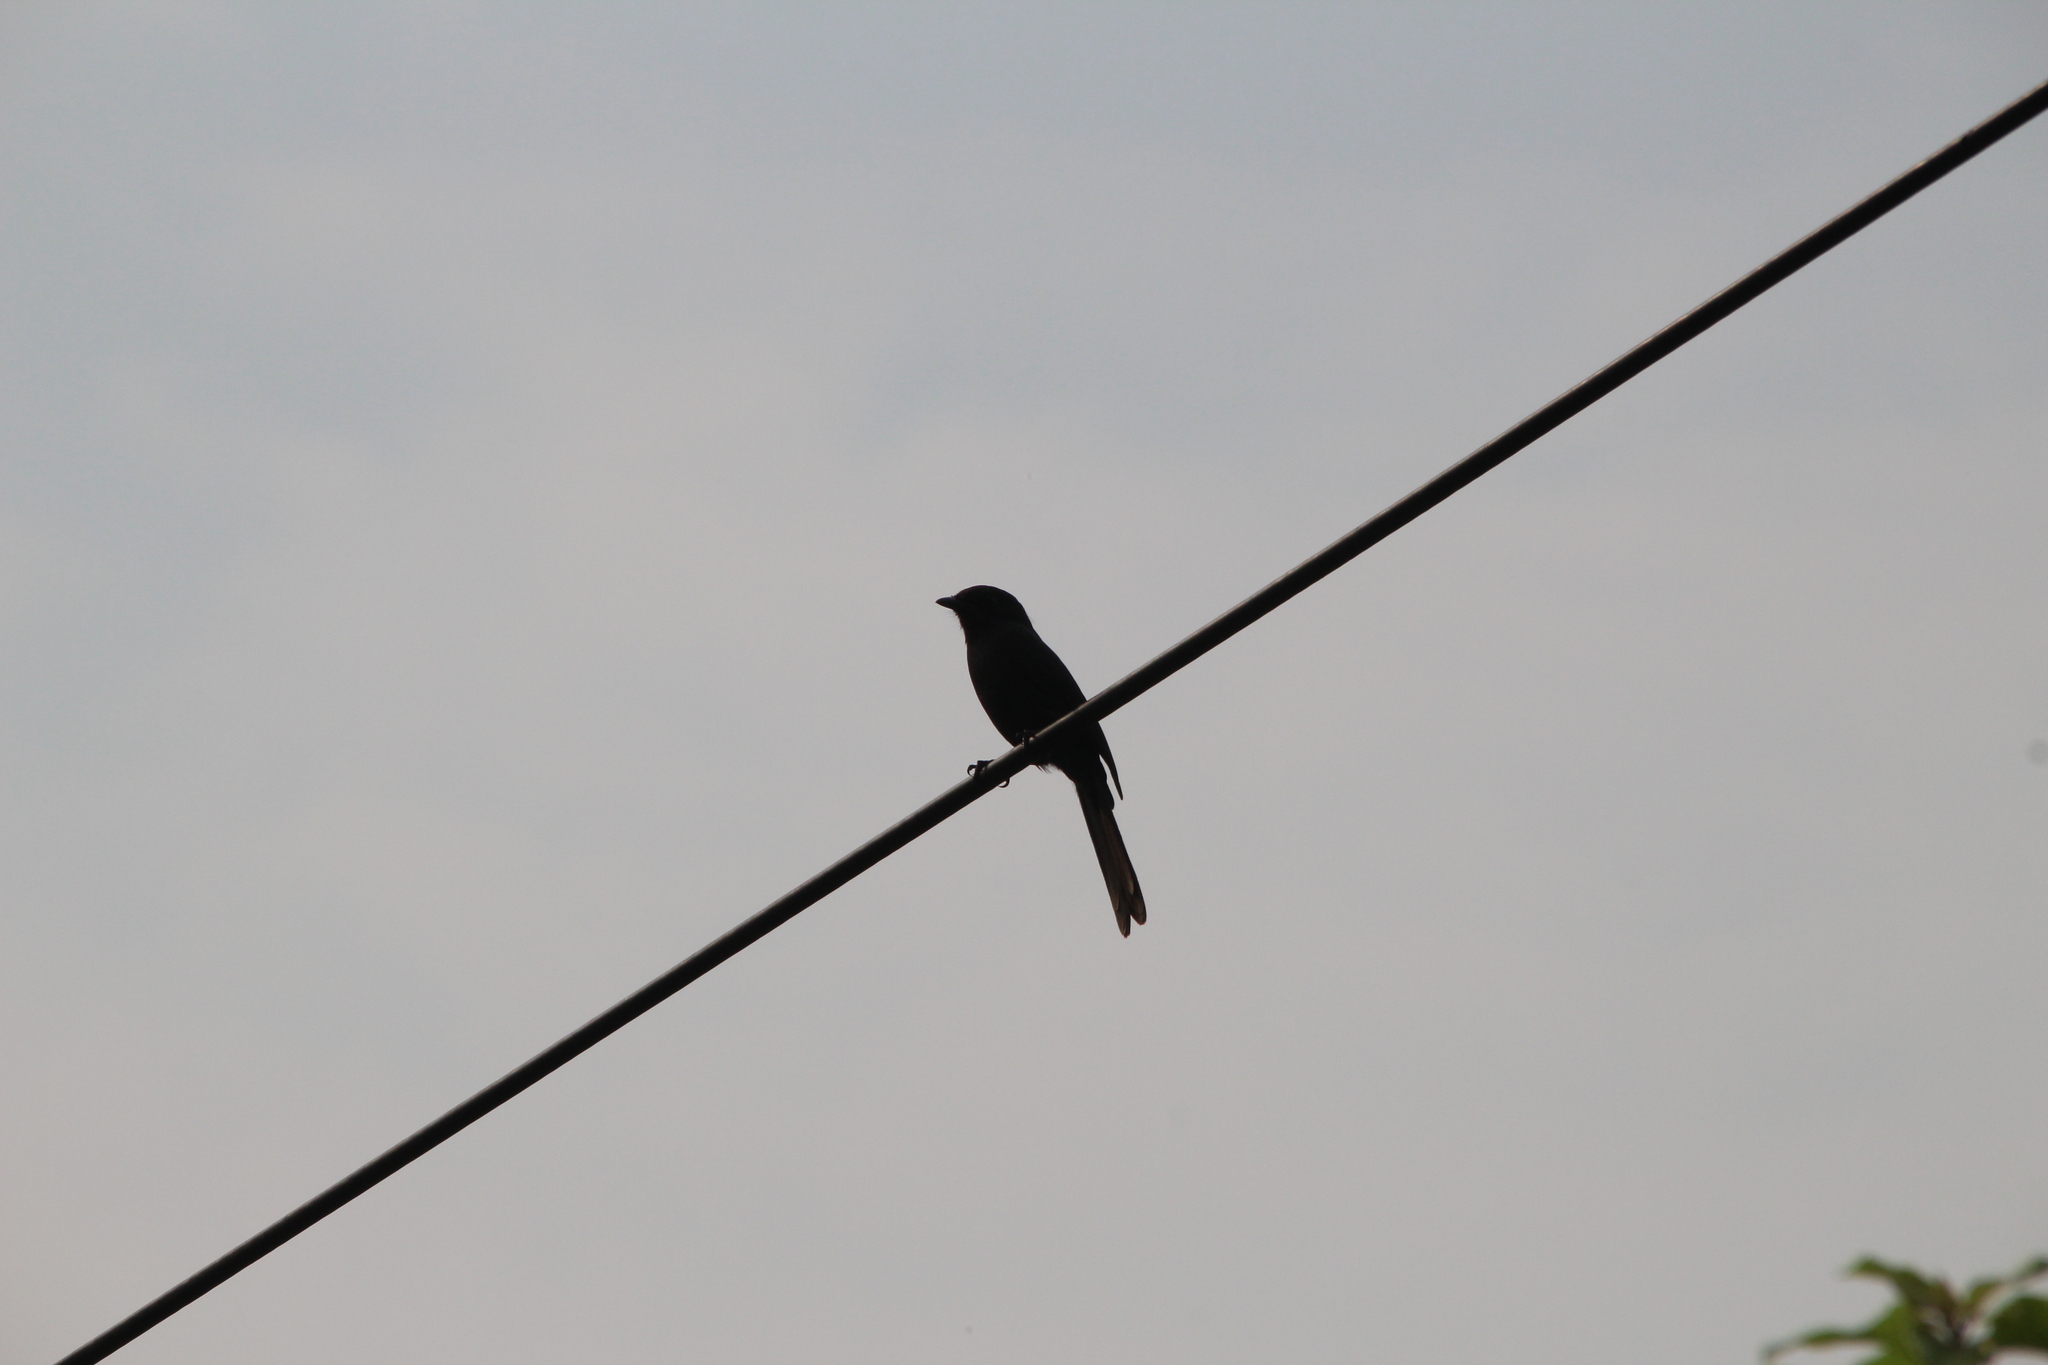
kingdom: Animalia
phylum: Chordata
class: Aves
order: Passeriformes
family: Muscicapidae
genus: Melaenornis
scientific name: Melaenornis edolioides
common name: Northern black flycatcher
